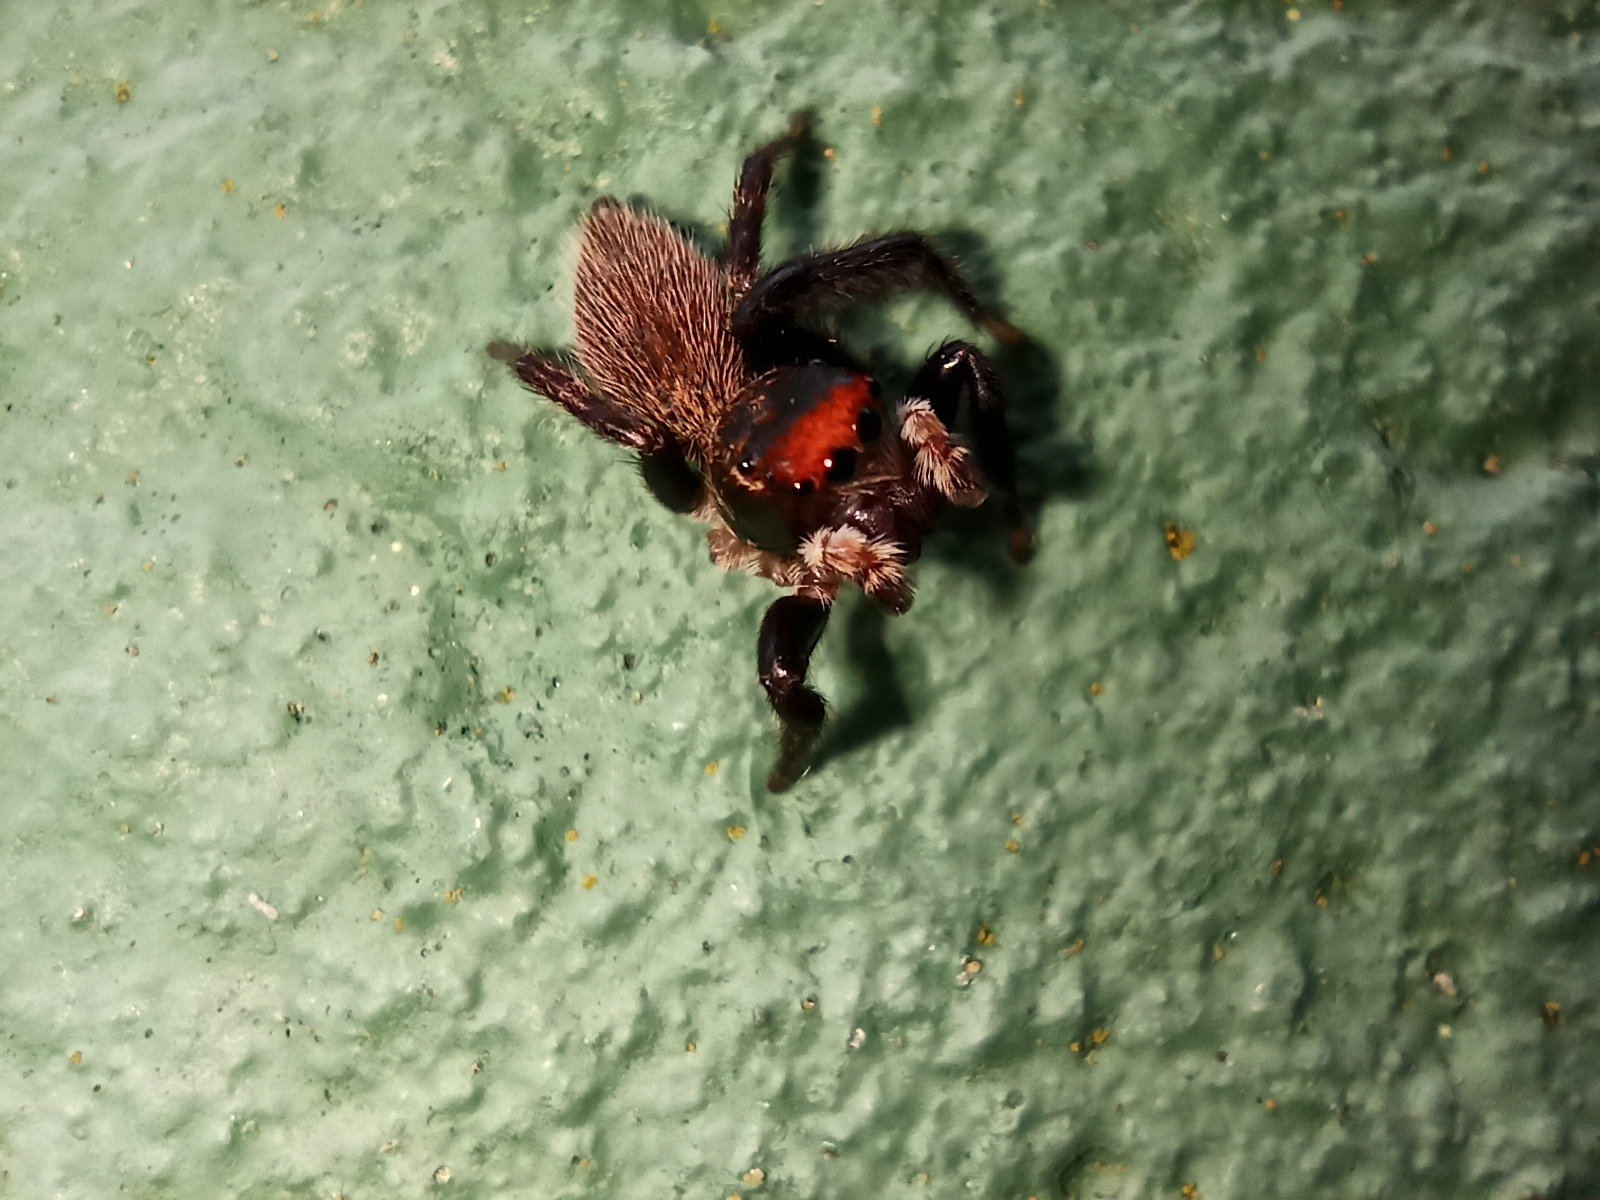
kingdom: Animalia
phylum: Arthropoda
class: Arachnida
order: Araneae
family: Salticidae
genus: Maratus
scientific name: Maratus griseus
